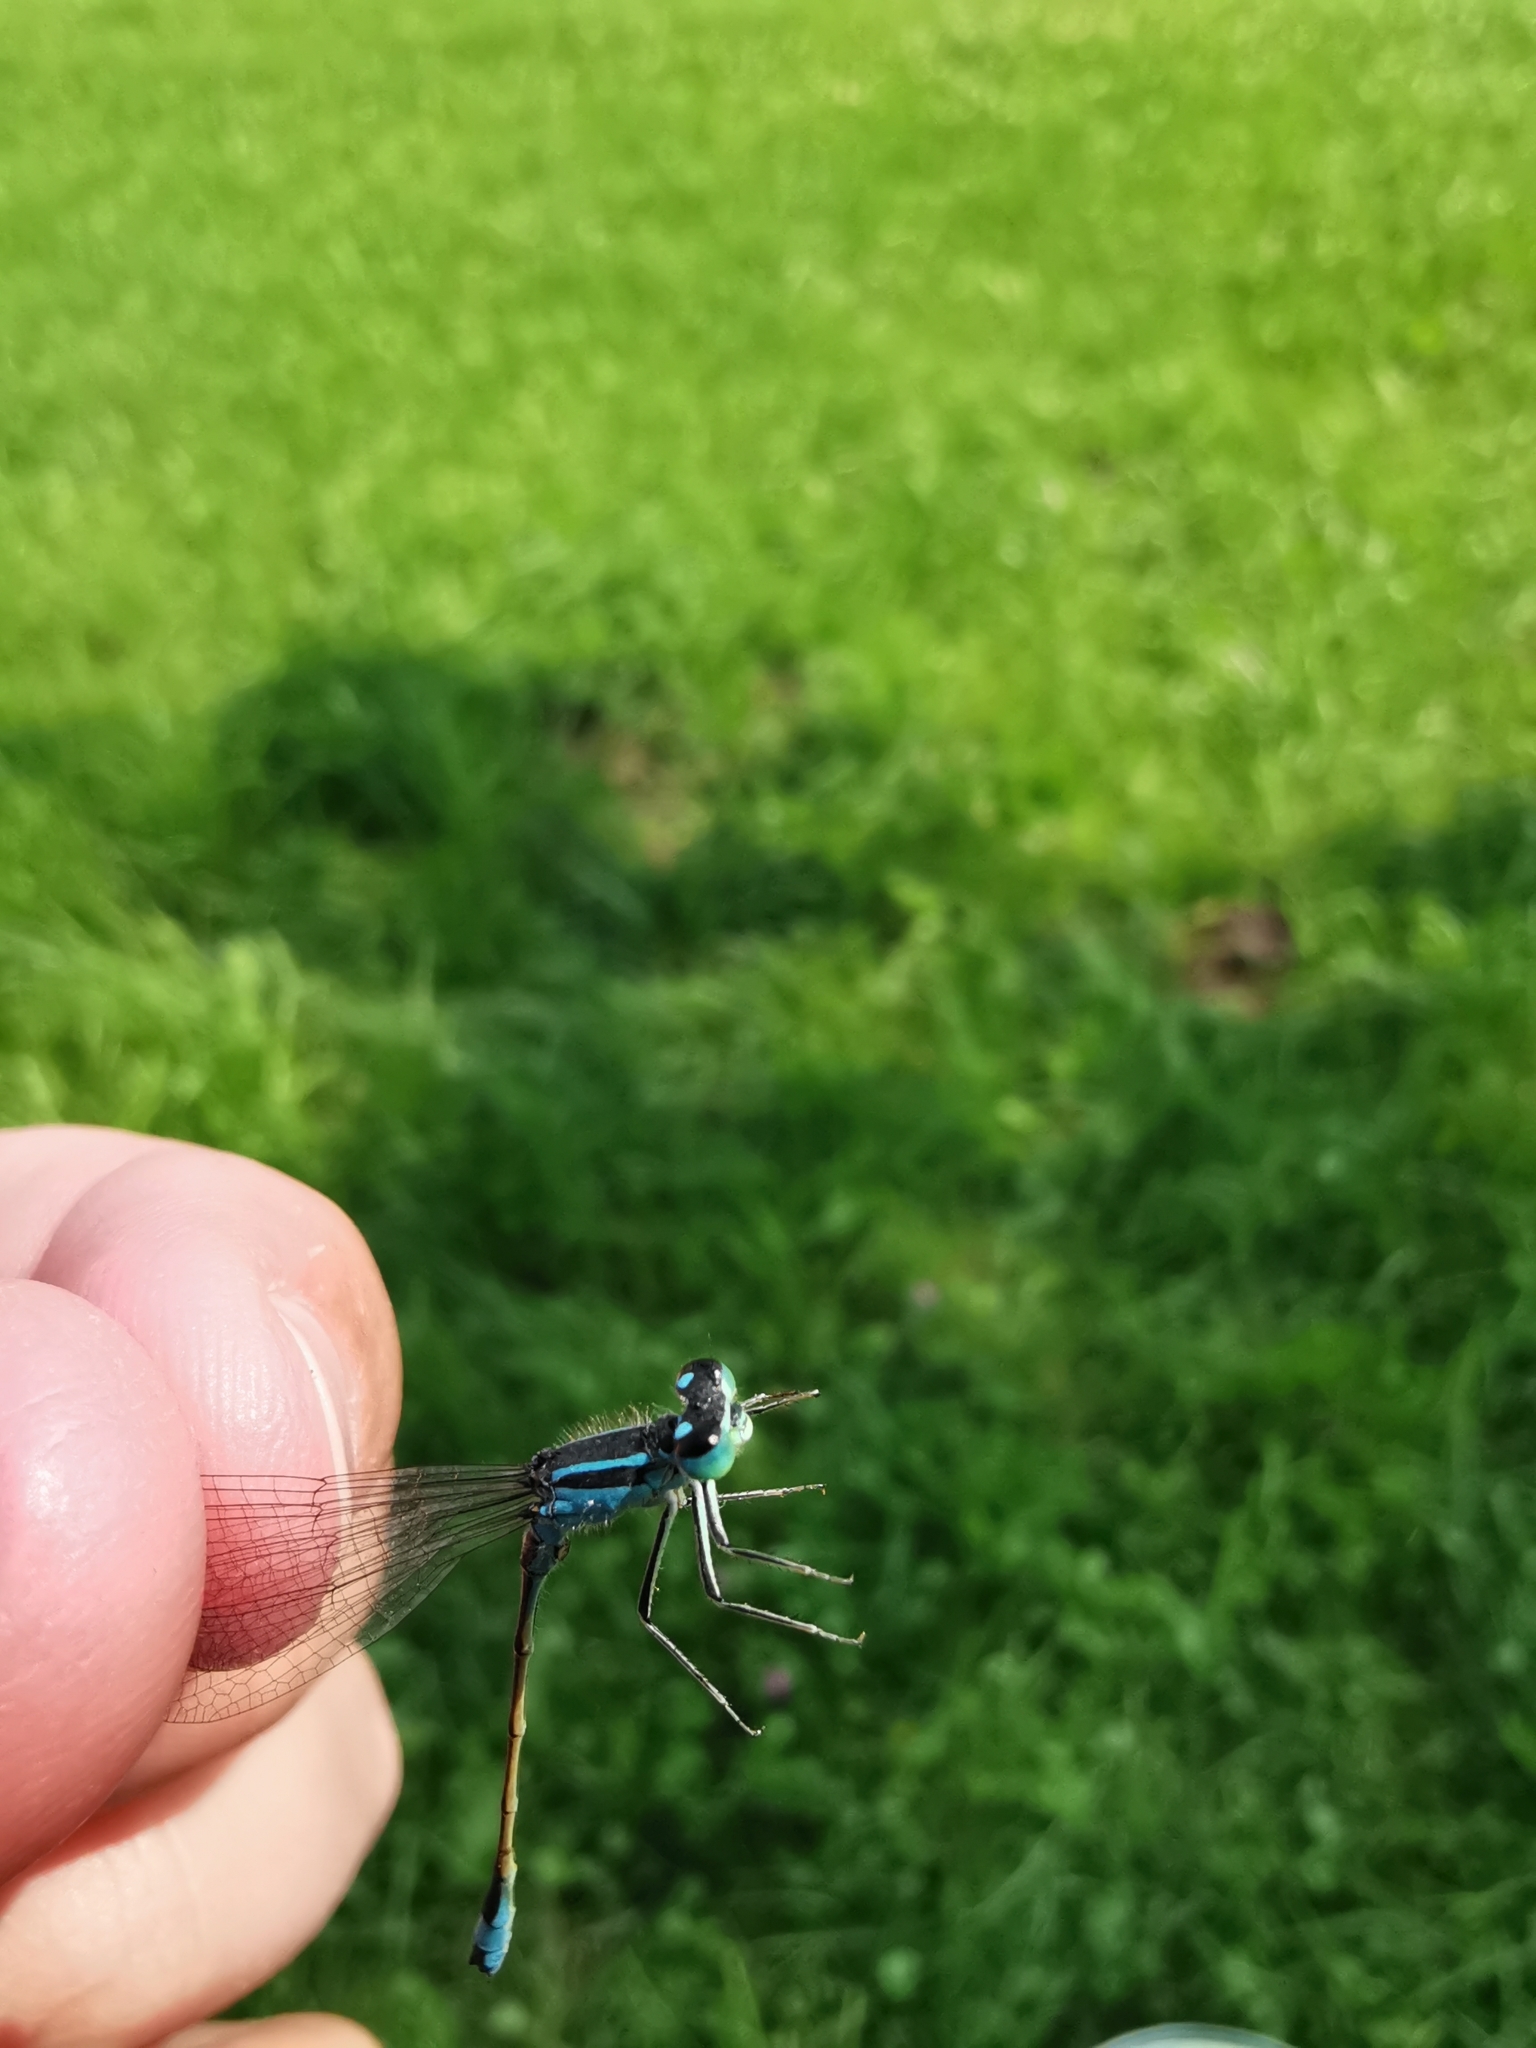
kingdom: Animalia
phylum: Arthropoda
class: Insecta
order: Odonata
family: Coenagrionidae
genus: Ischnura
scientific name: Ischnura elegans
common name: Blue-tailed damselfly
